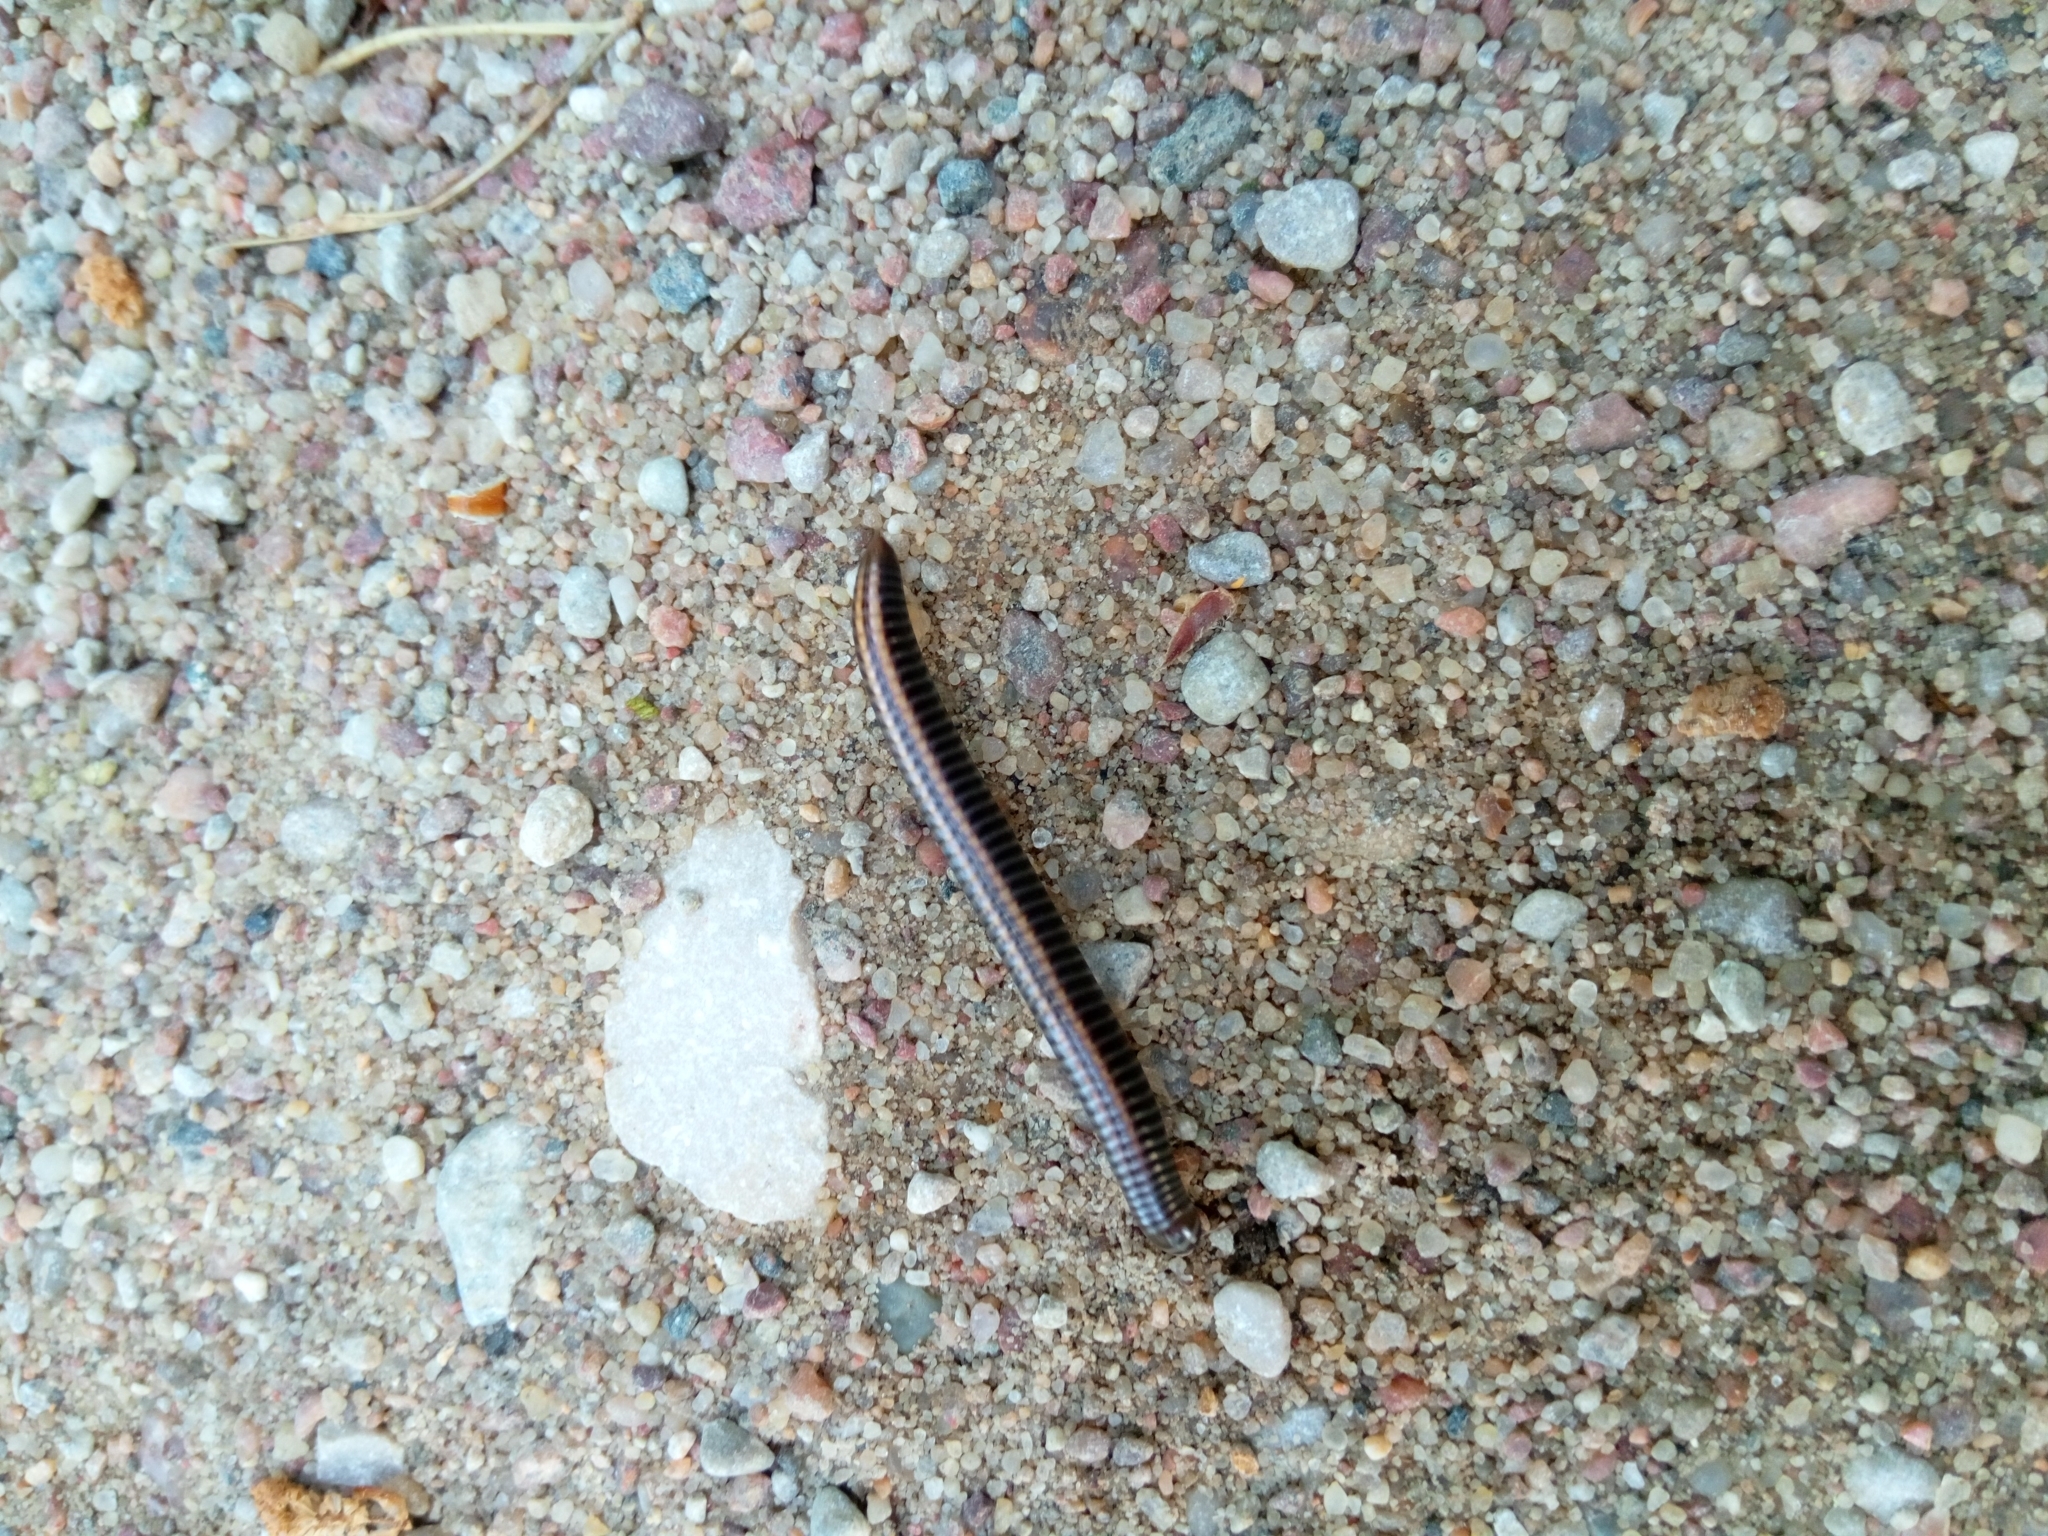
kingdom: Animalia
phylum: Arthropoda
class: Diplopoda
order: Julida
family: Julidae
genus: Ommatoiulus
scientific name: Ommatoiulus sabulosus
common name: Striped millipede
